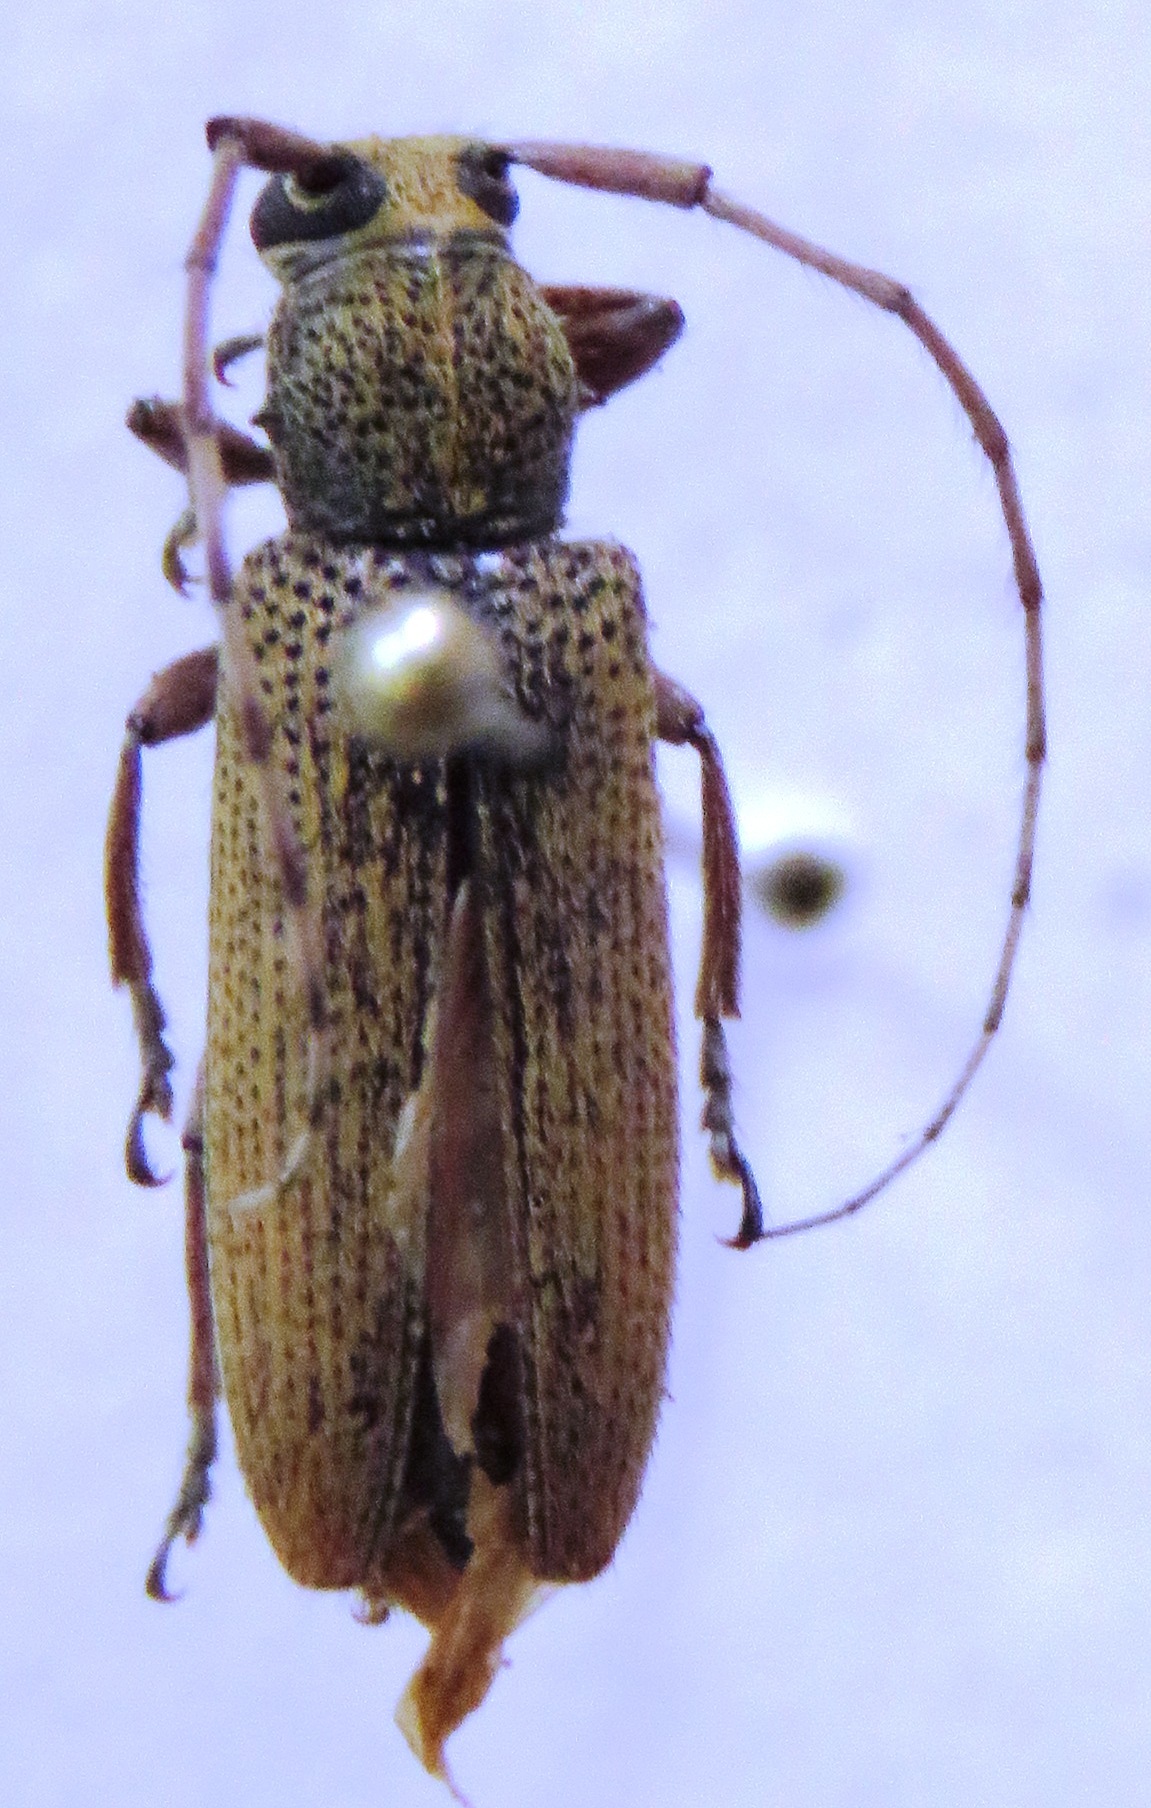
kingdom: Animalia
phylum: Arthropoda
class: Insecta
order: Coleoptera
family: Cerambycidae
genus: Ataxia
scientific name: Ataxia operaria
